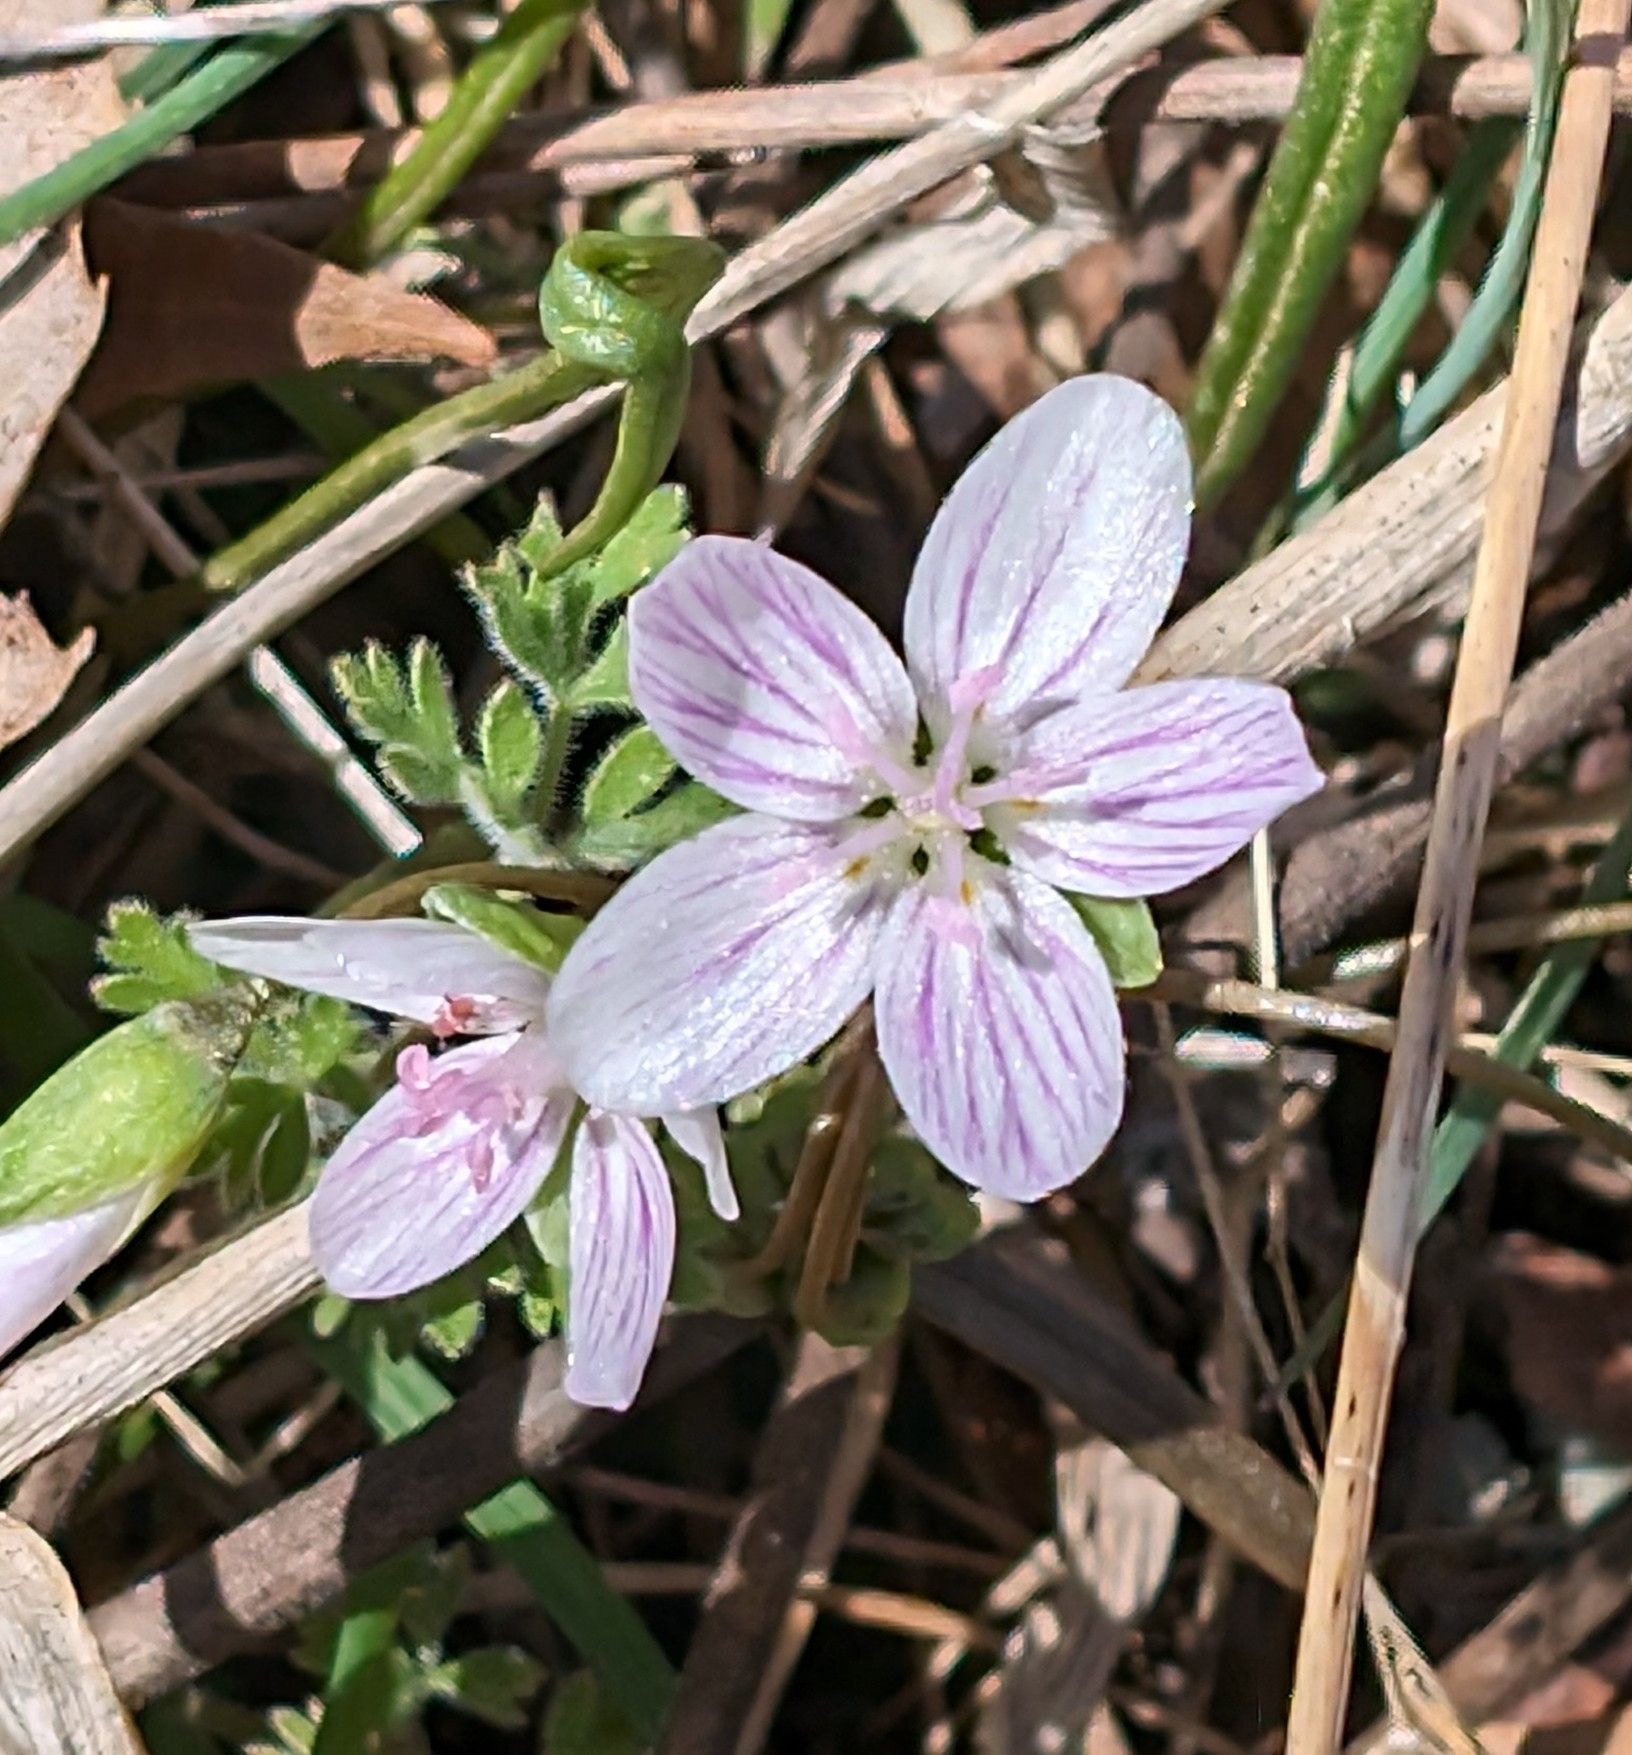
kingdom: Plantae
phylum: Tracheophyta
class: Magnoliopsida
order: Caryophyllales
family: Montiaceae
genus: Claytonia
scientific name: Claytonia virginica
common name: Virginia springbeauty
